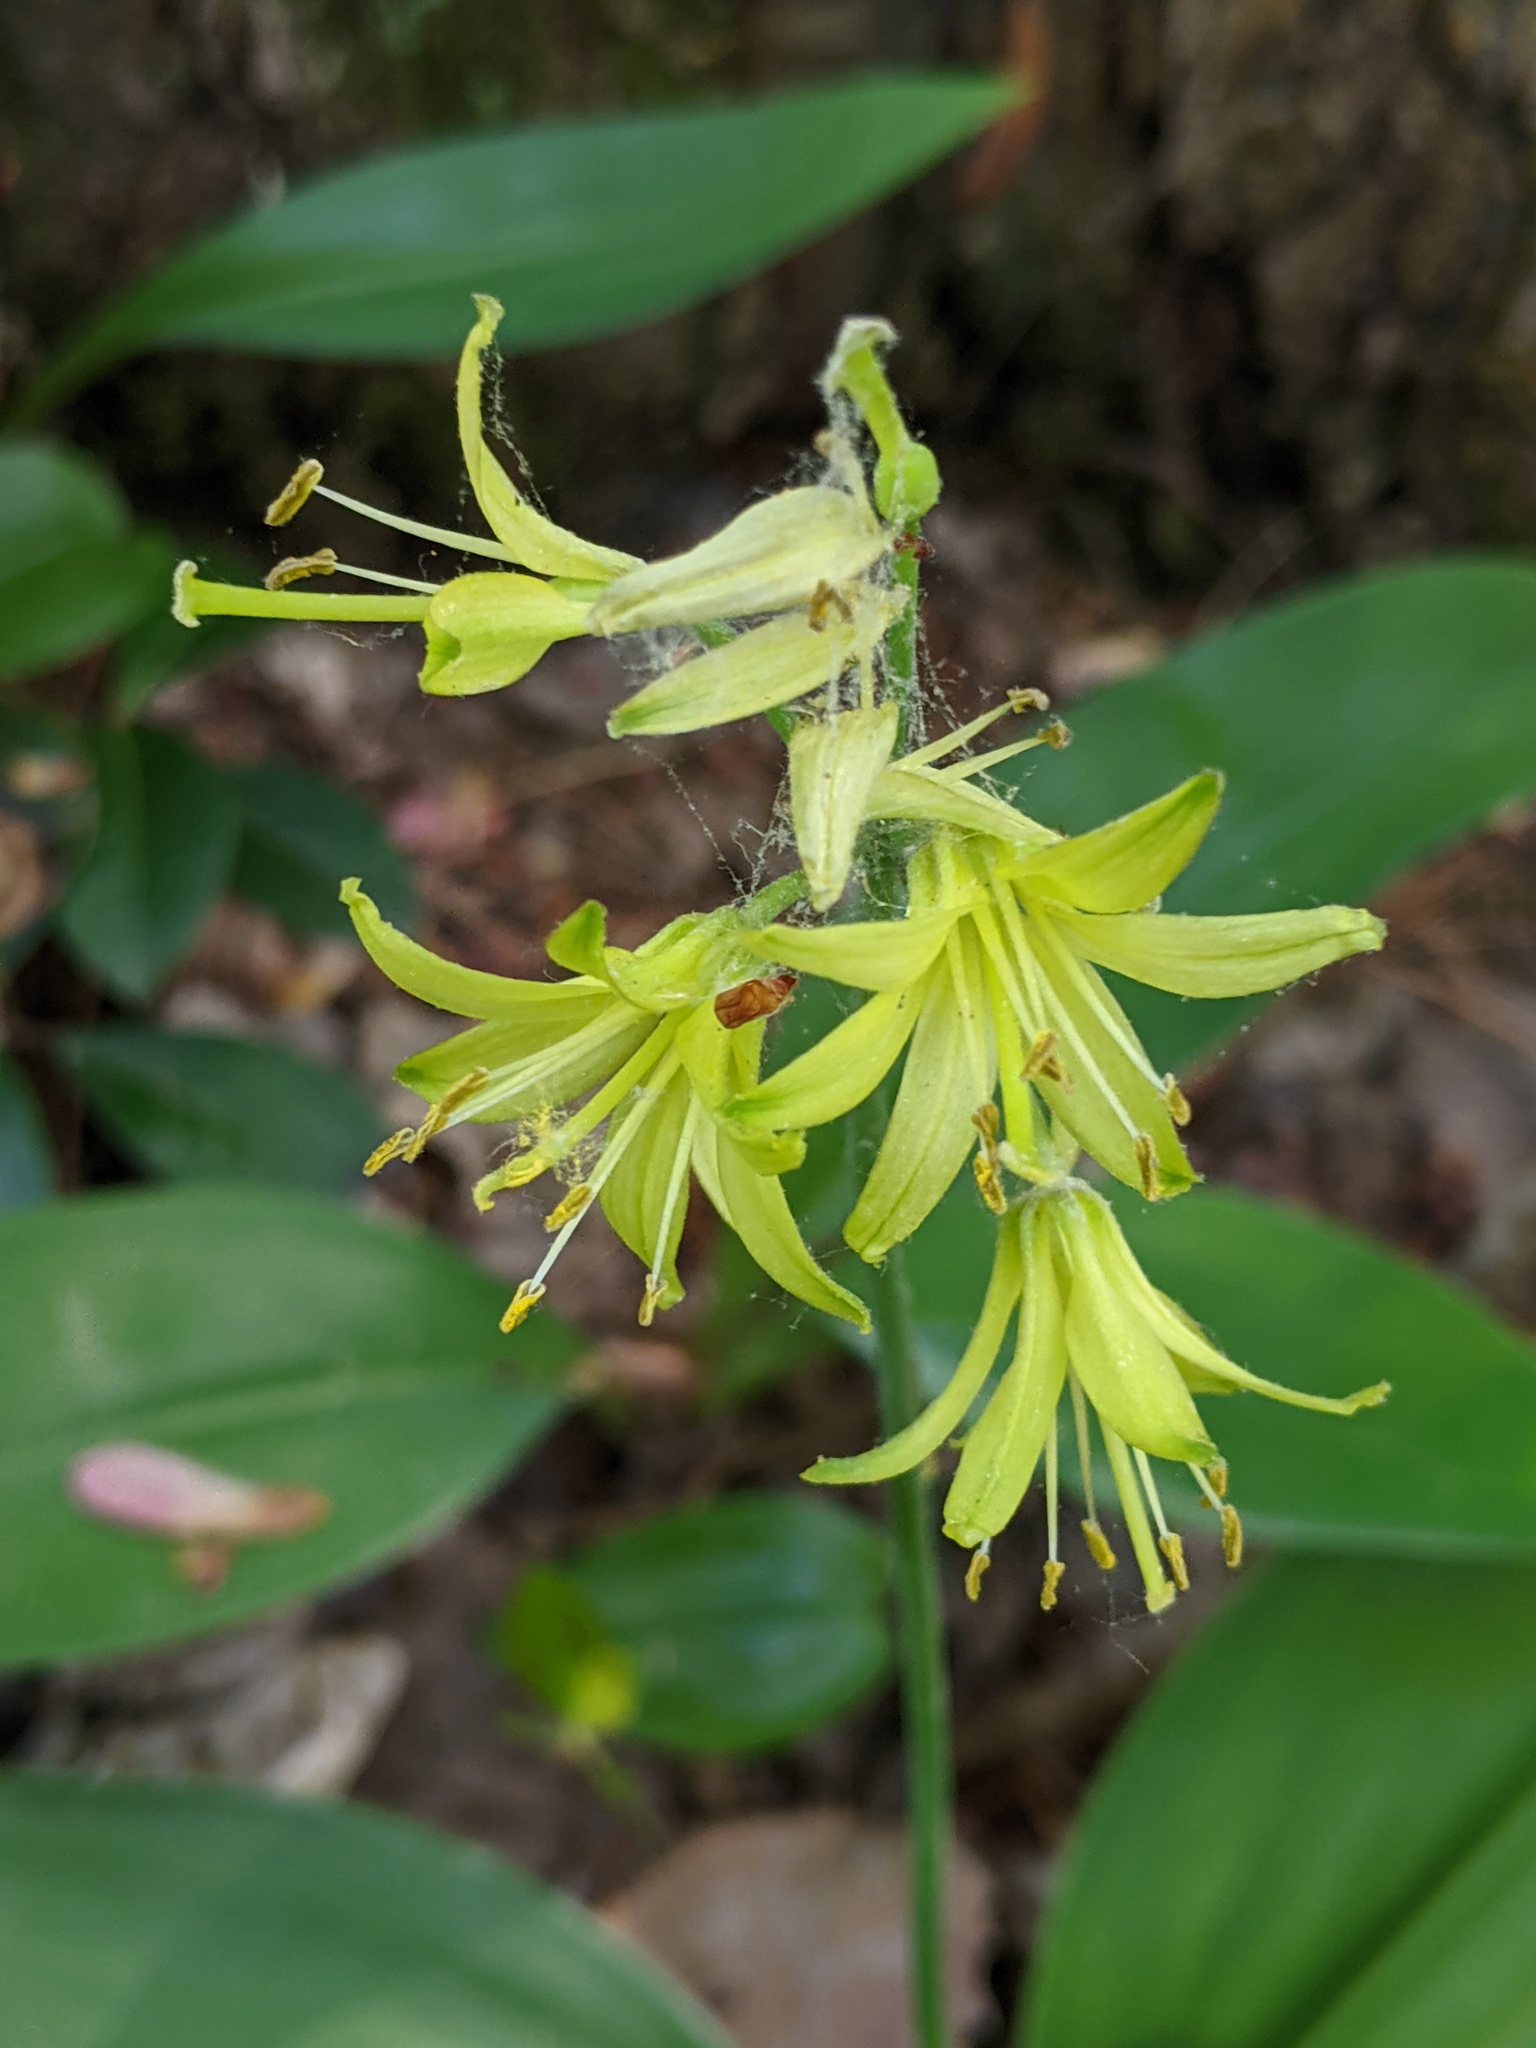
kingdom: Plantae
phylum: Tracheophyta
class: Liliopsida
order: Liliales
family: Liliaceae
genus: Clintonia
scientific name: Clintonia borealis
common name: Yellow clintonia
